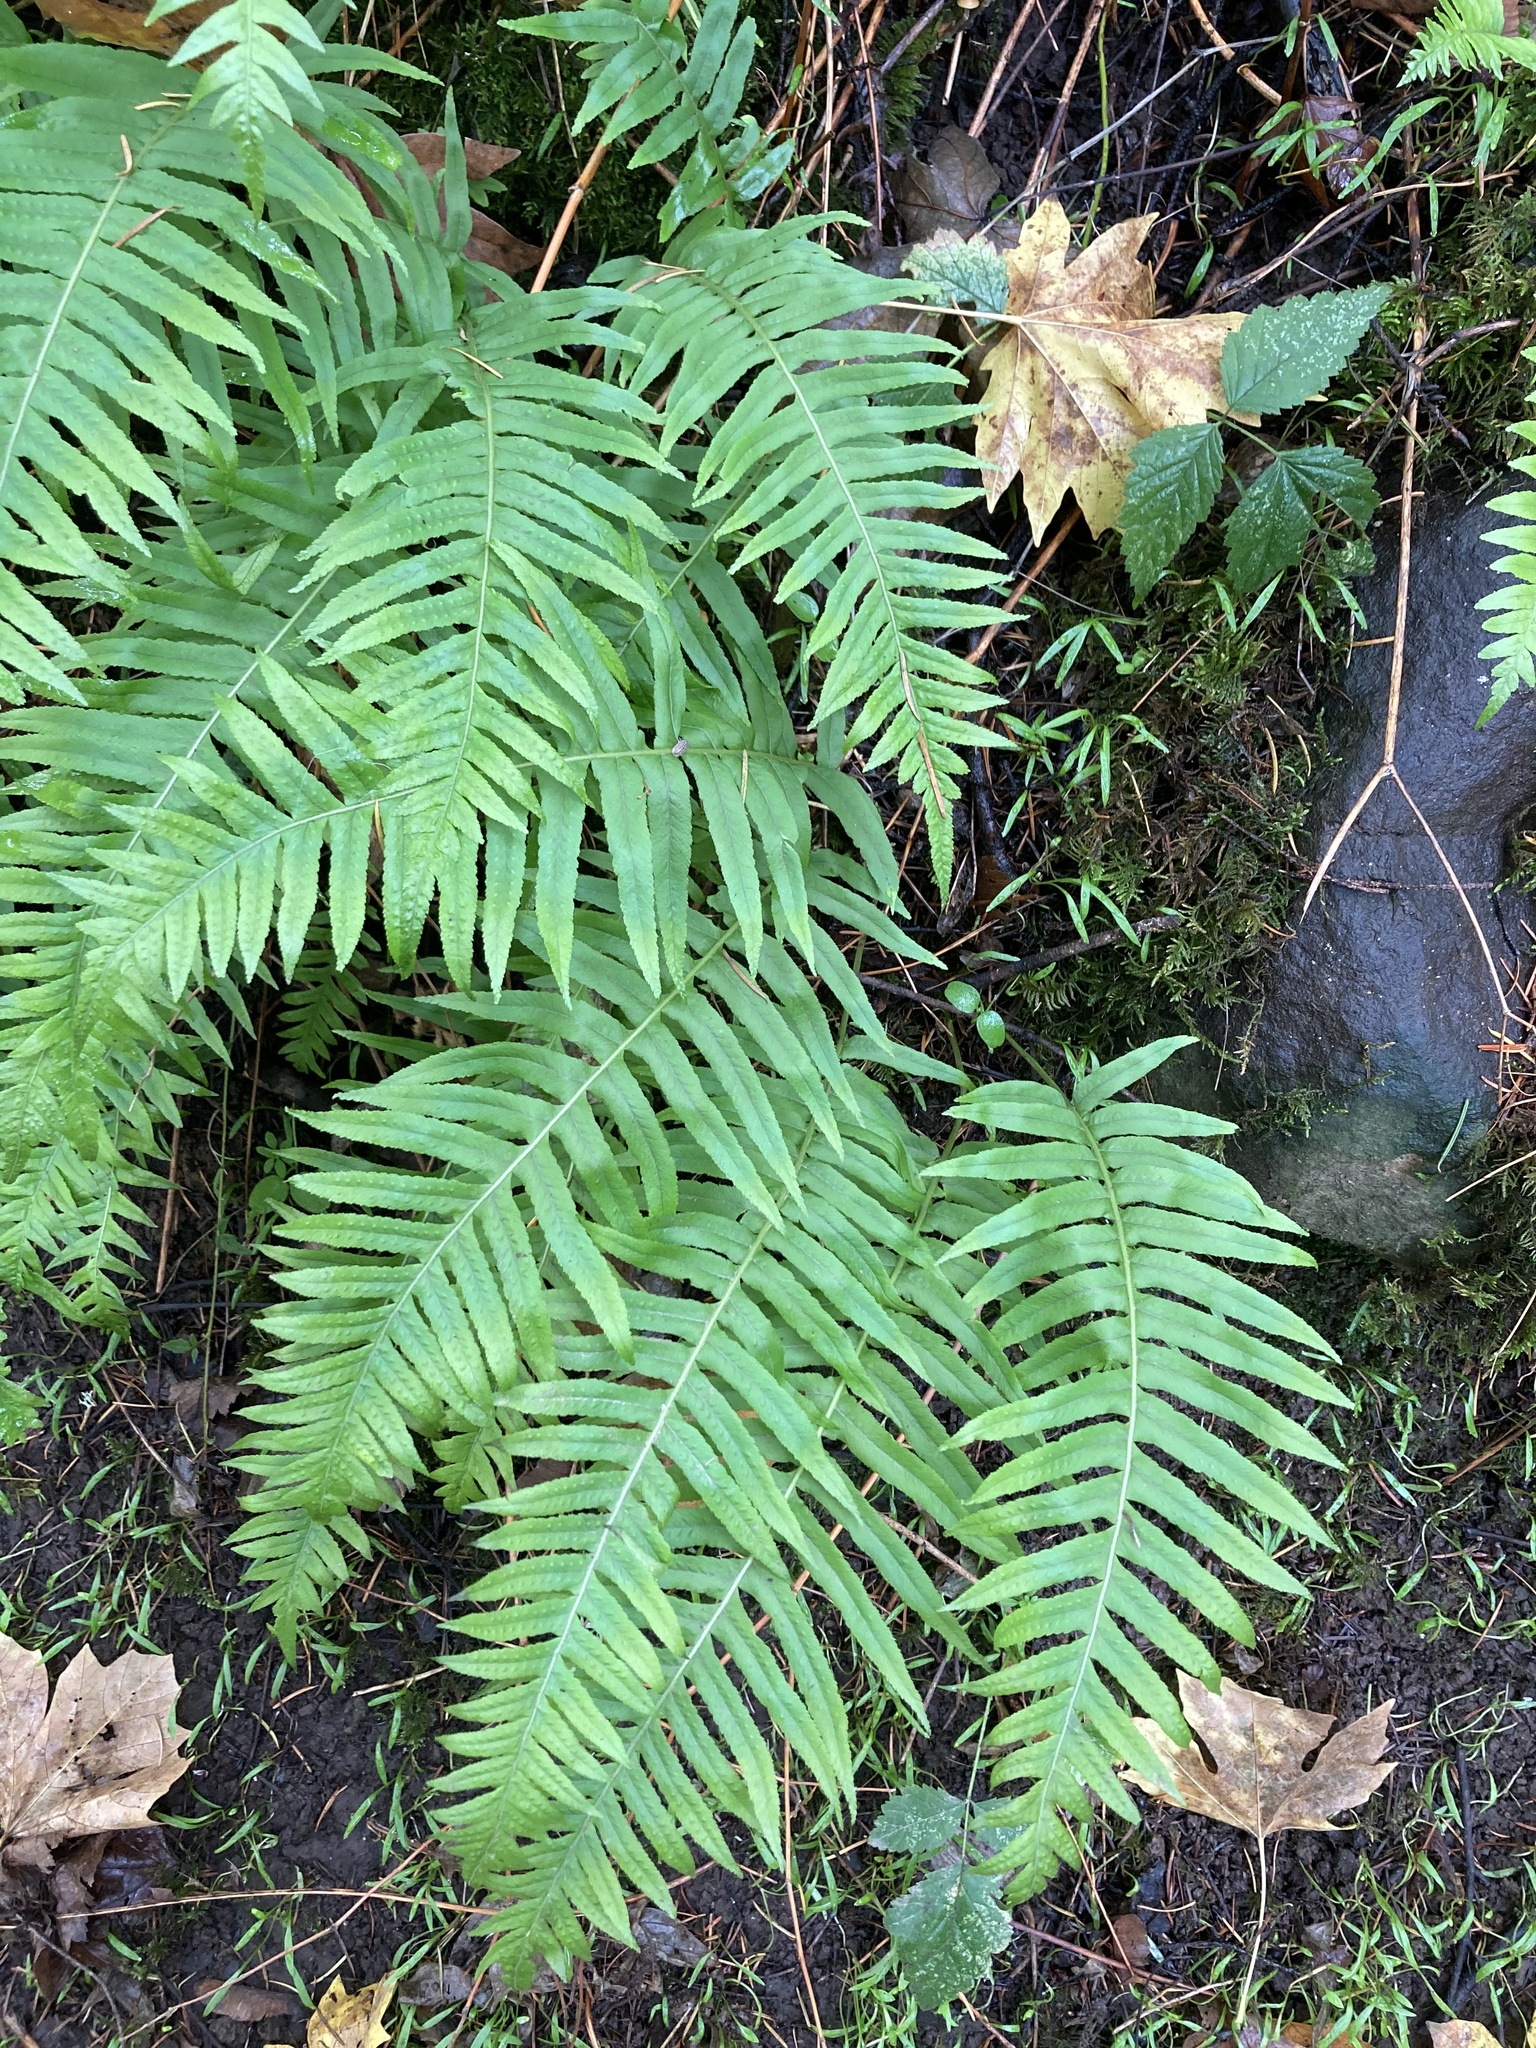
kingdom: Plantae
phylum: Tracheophyta
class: Polypodiopsida
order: Polypodiales
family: Polypodiaceae
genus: Polypodium
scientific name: Polypodium glycyrrhiza
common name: Licorice fern
